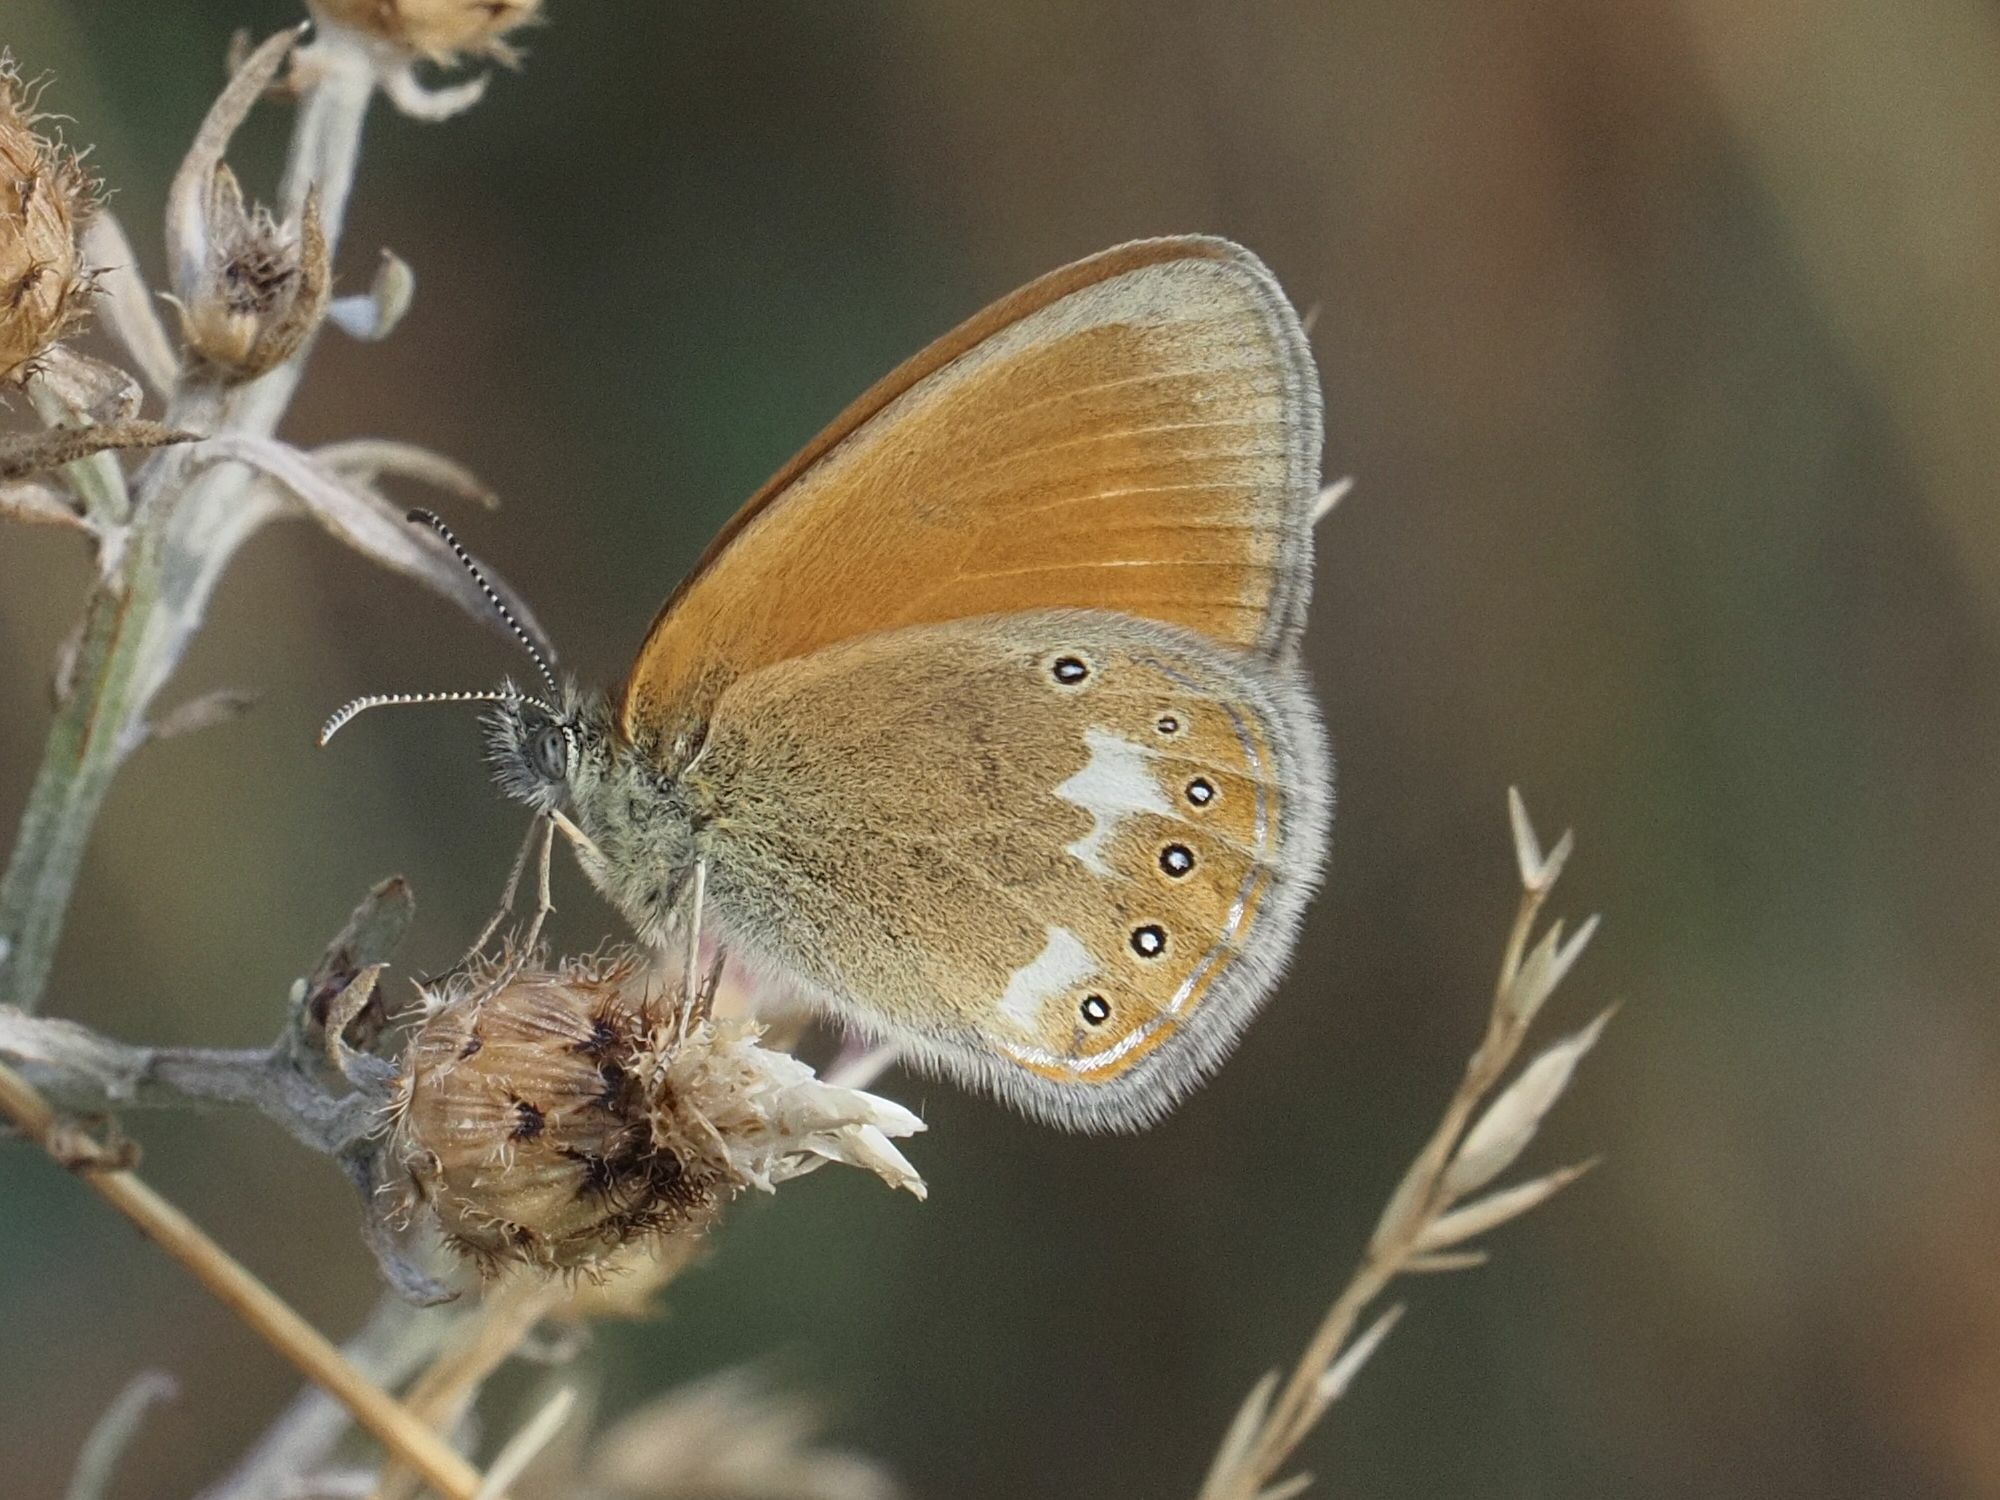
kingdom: Animalia
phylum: Arthropoda
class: Insecta
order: Lepidoptera
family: Nymphalidae
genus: Coenonympha
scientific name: Coenonympha iphis
